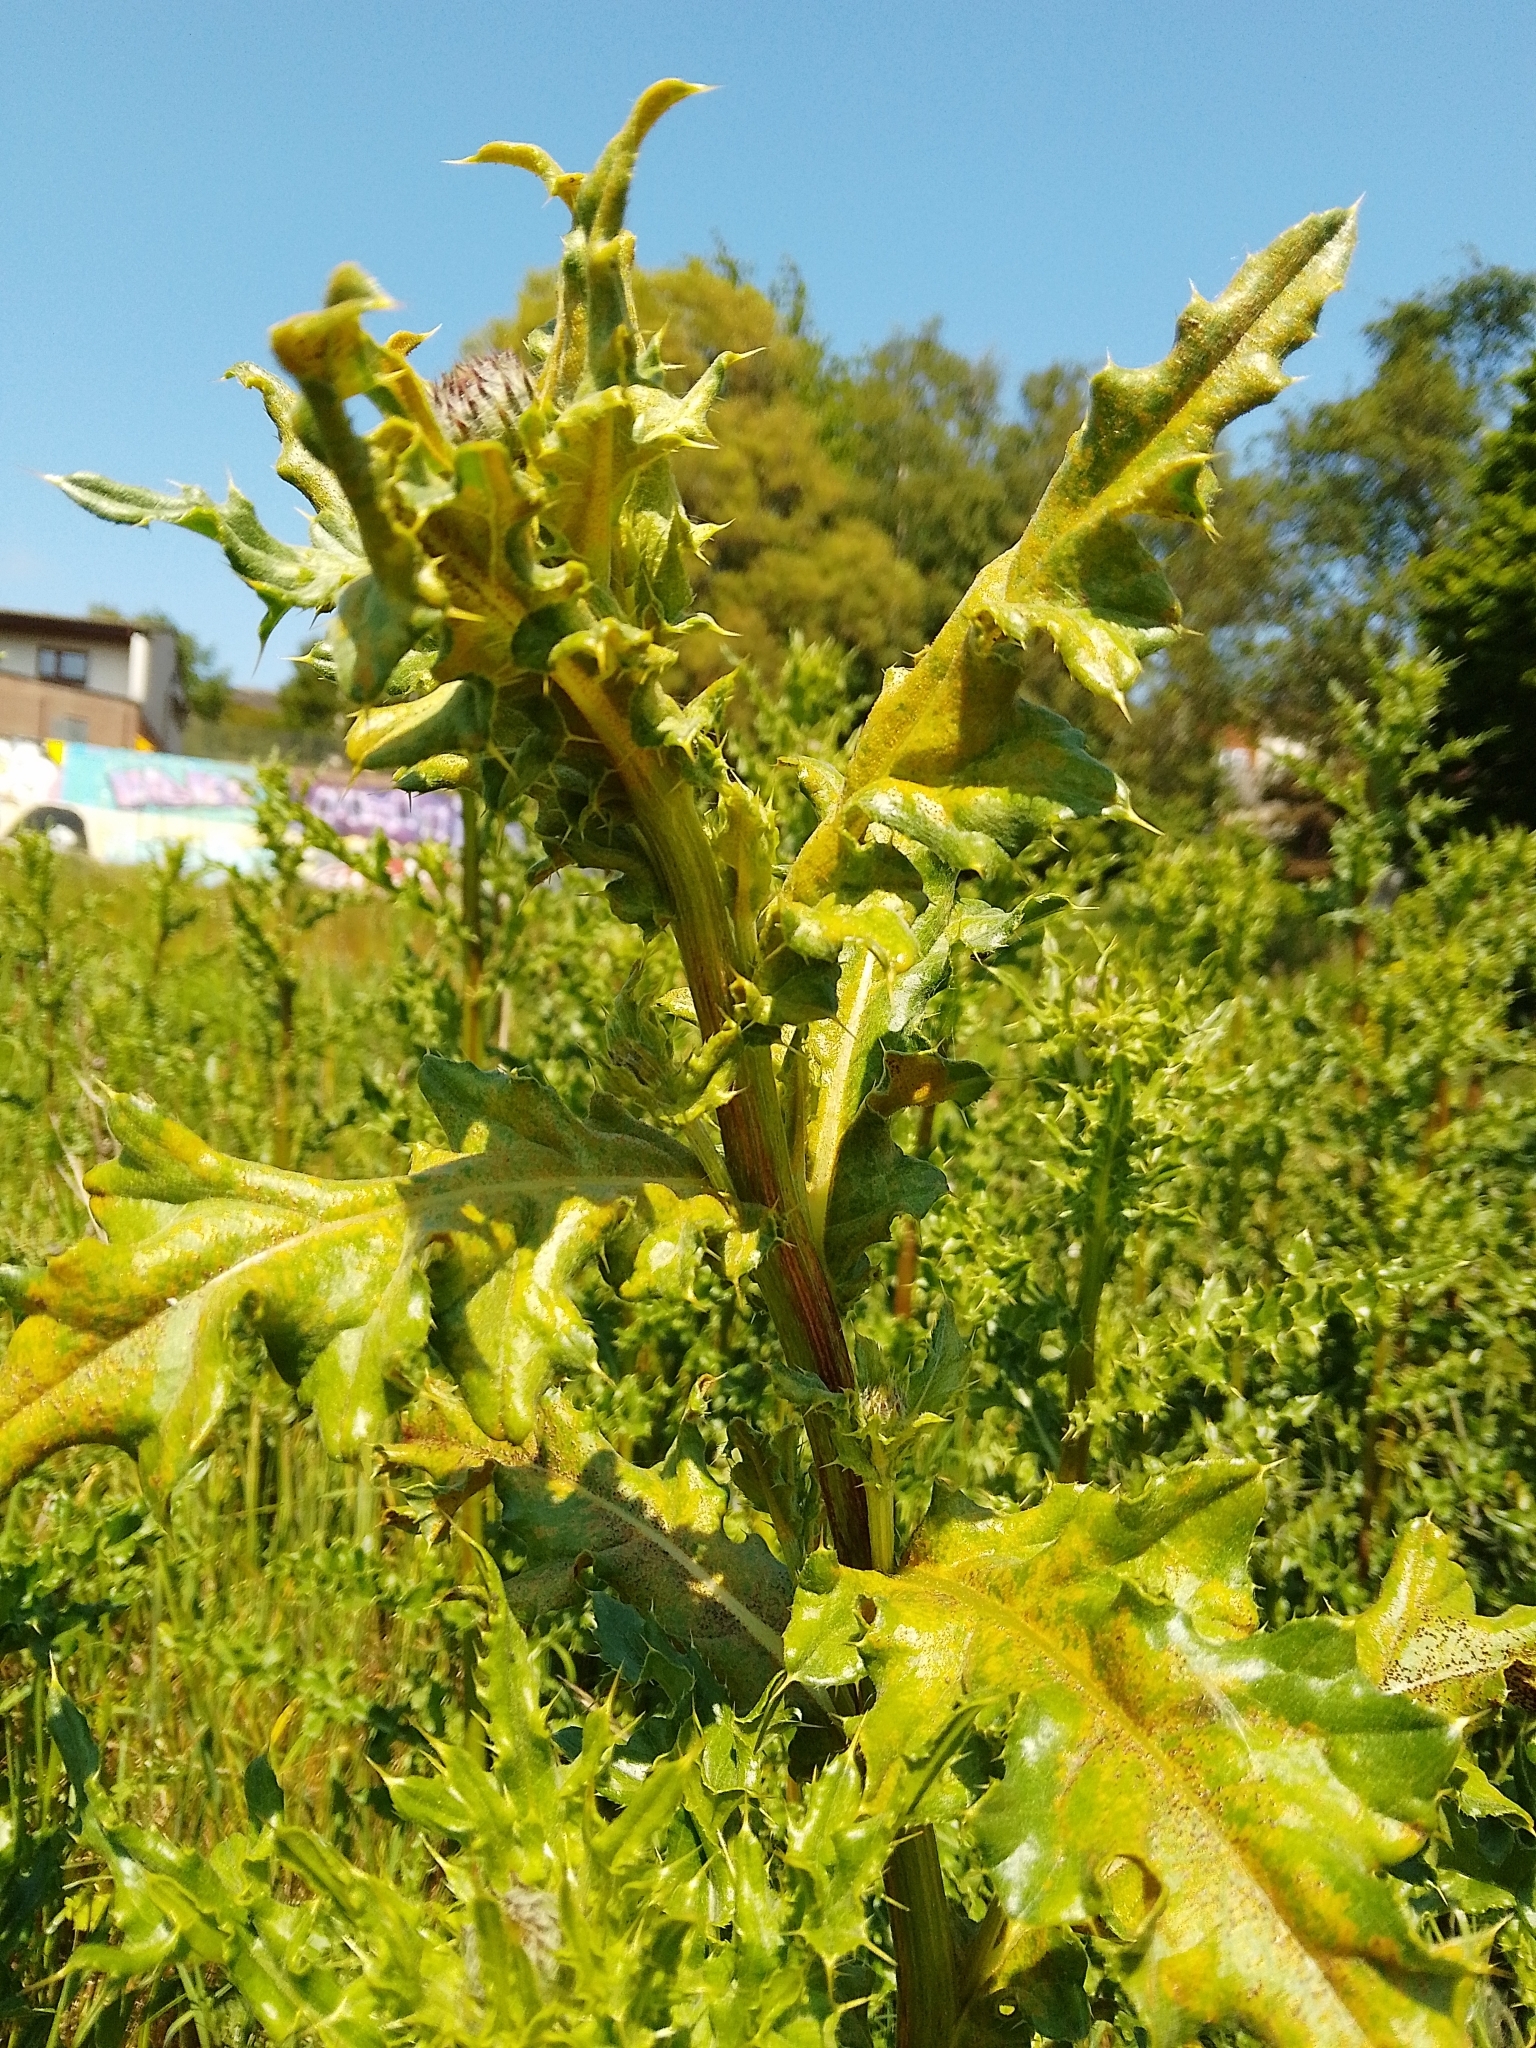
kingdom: Fungi
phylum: Basidiomycota
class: Pucciniomycetes
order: Pucciniales
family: Pucciniaceae
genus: Puccinia
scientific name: Puccinia suaveolens
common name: Thistle rust
